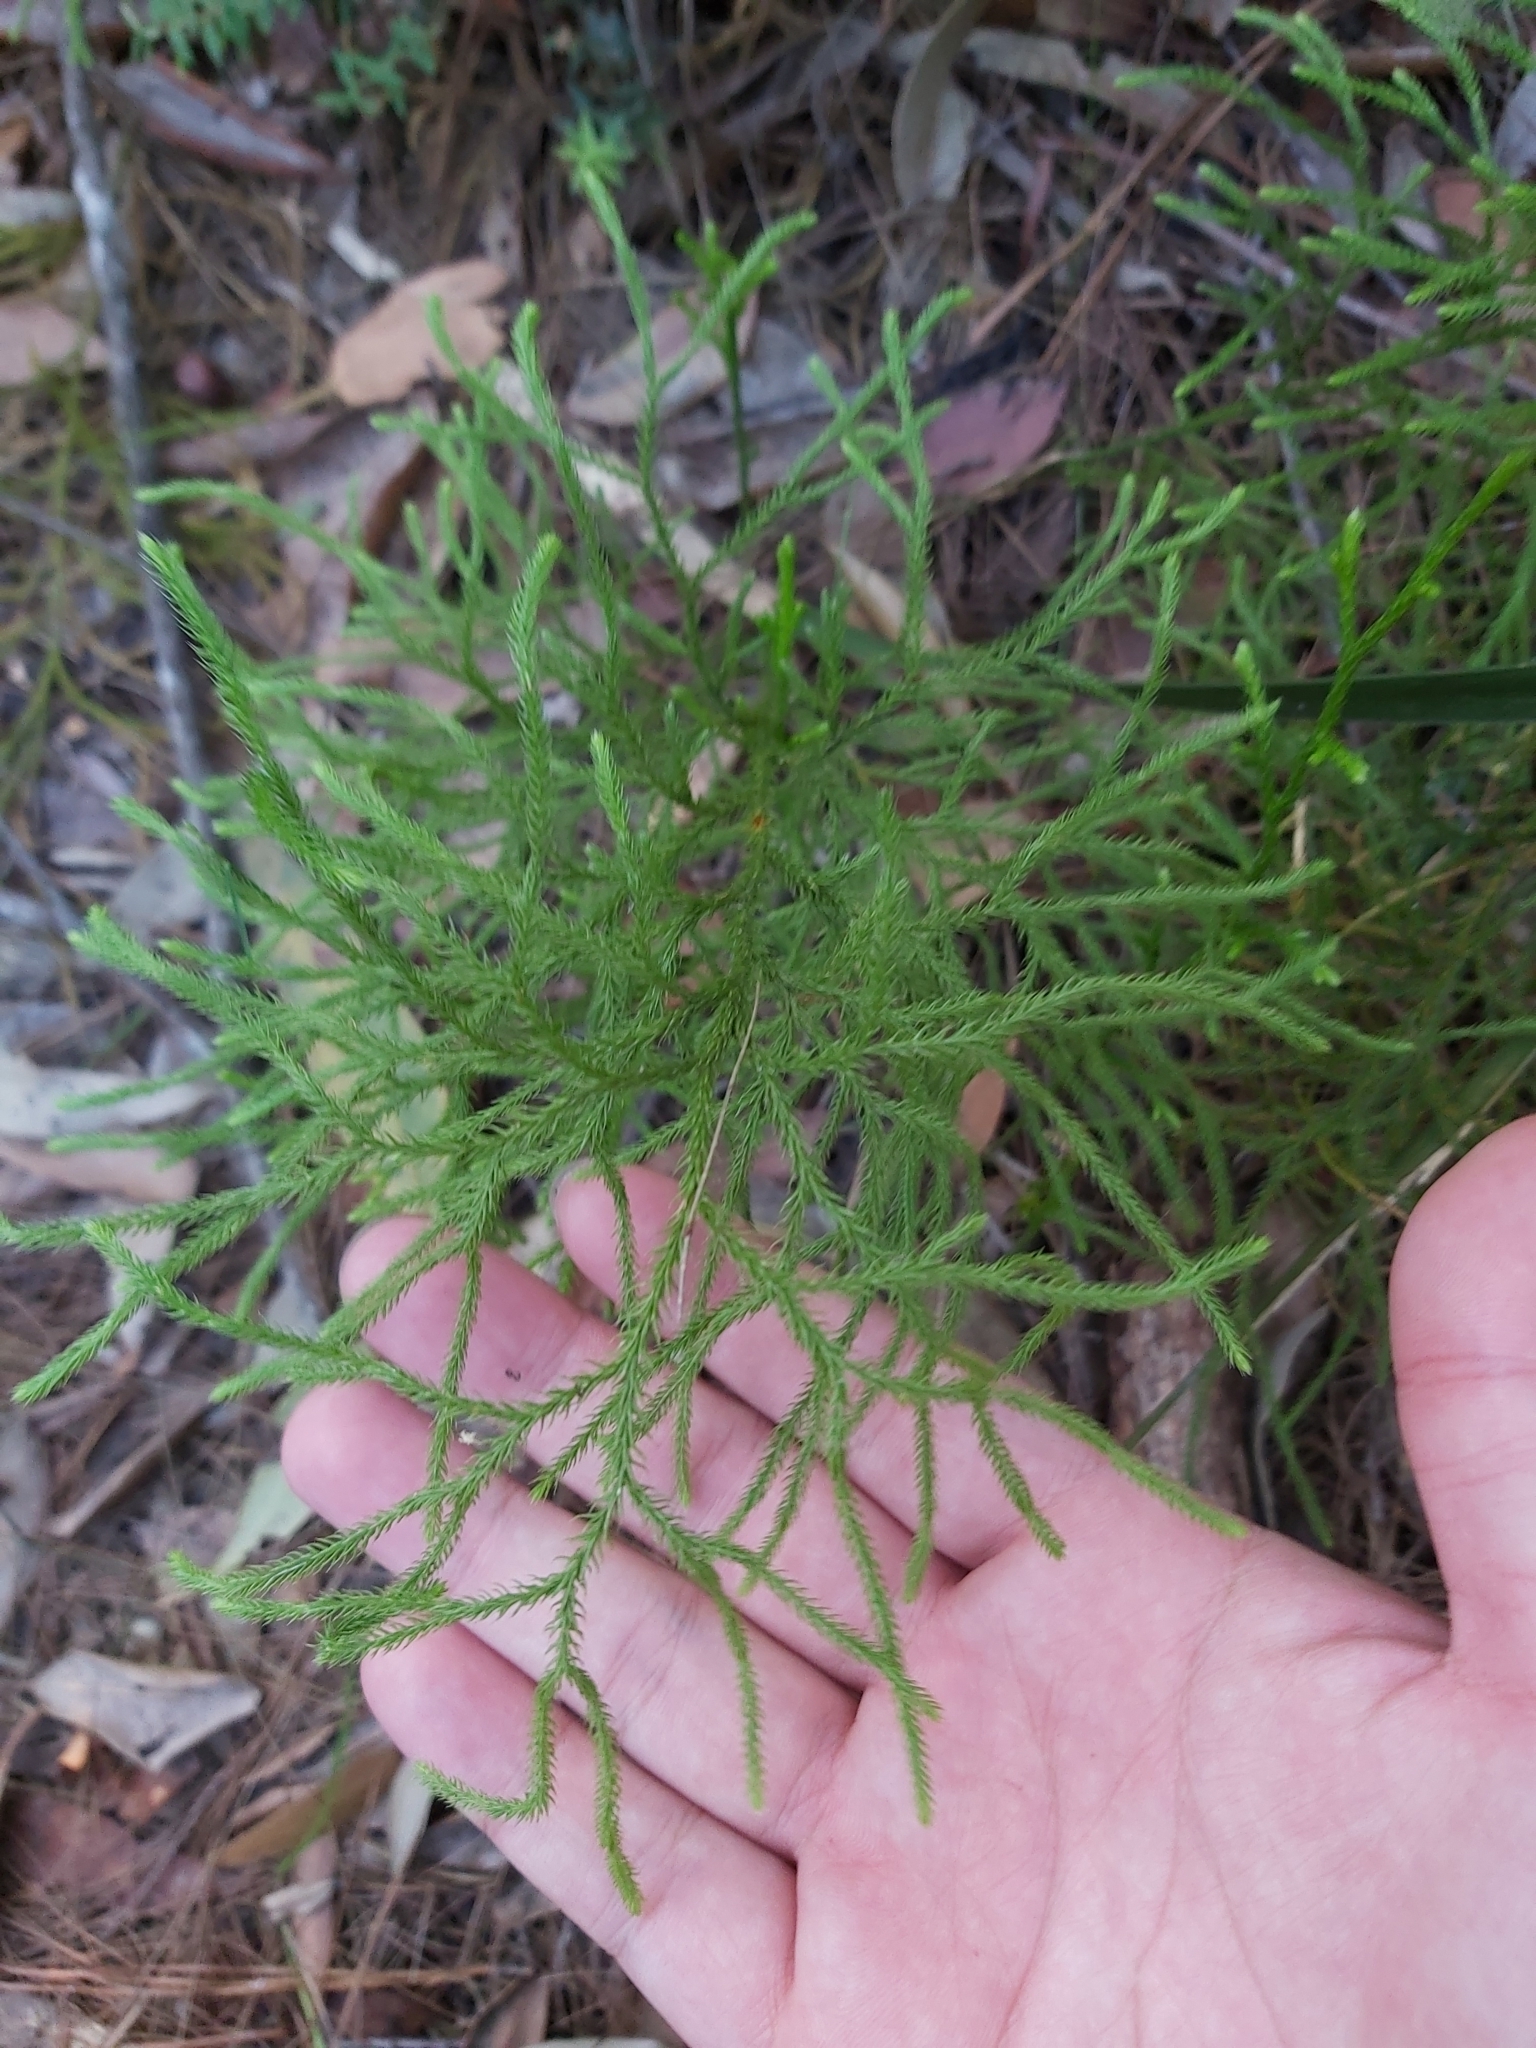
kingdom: Plantae
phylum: Tracheophyta
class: Lycopodiopsida
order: Lycopodiales
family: Lycopodiaceae
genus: Pseudolycopodium
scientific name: Pseudolycopodium densum
